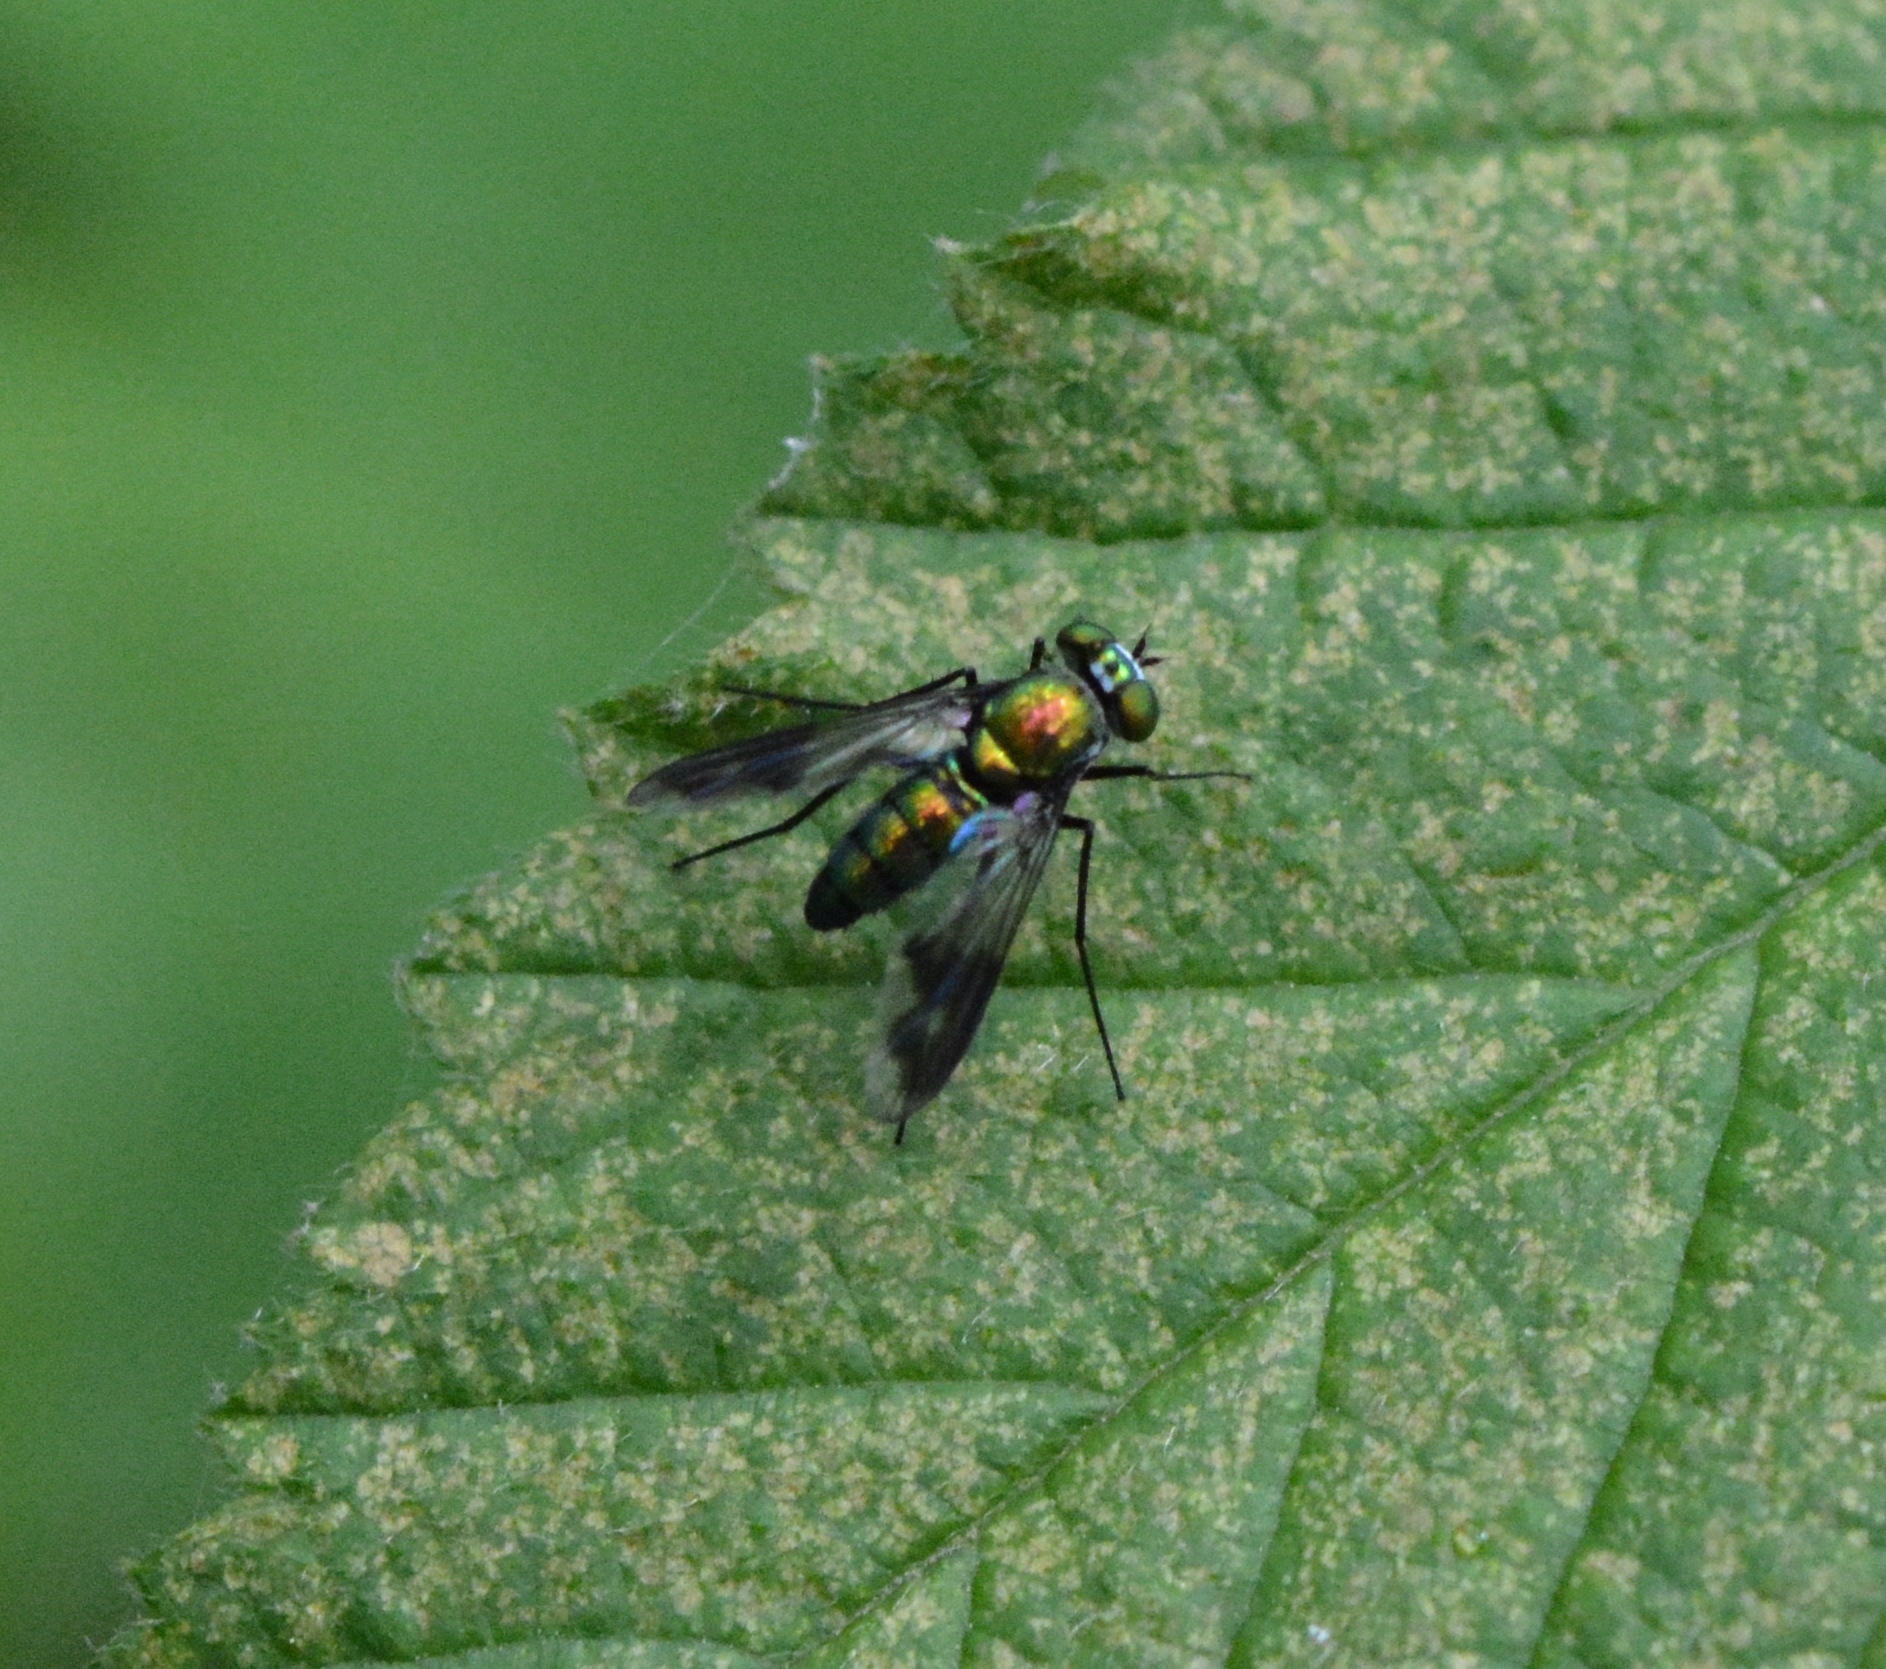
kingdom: Animalia
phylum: Arthropoda
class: Insecta
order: Diptera
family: Dolichopodidae
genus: Condylostylus
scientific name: Condylostylus patibulatus
